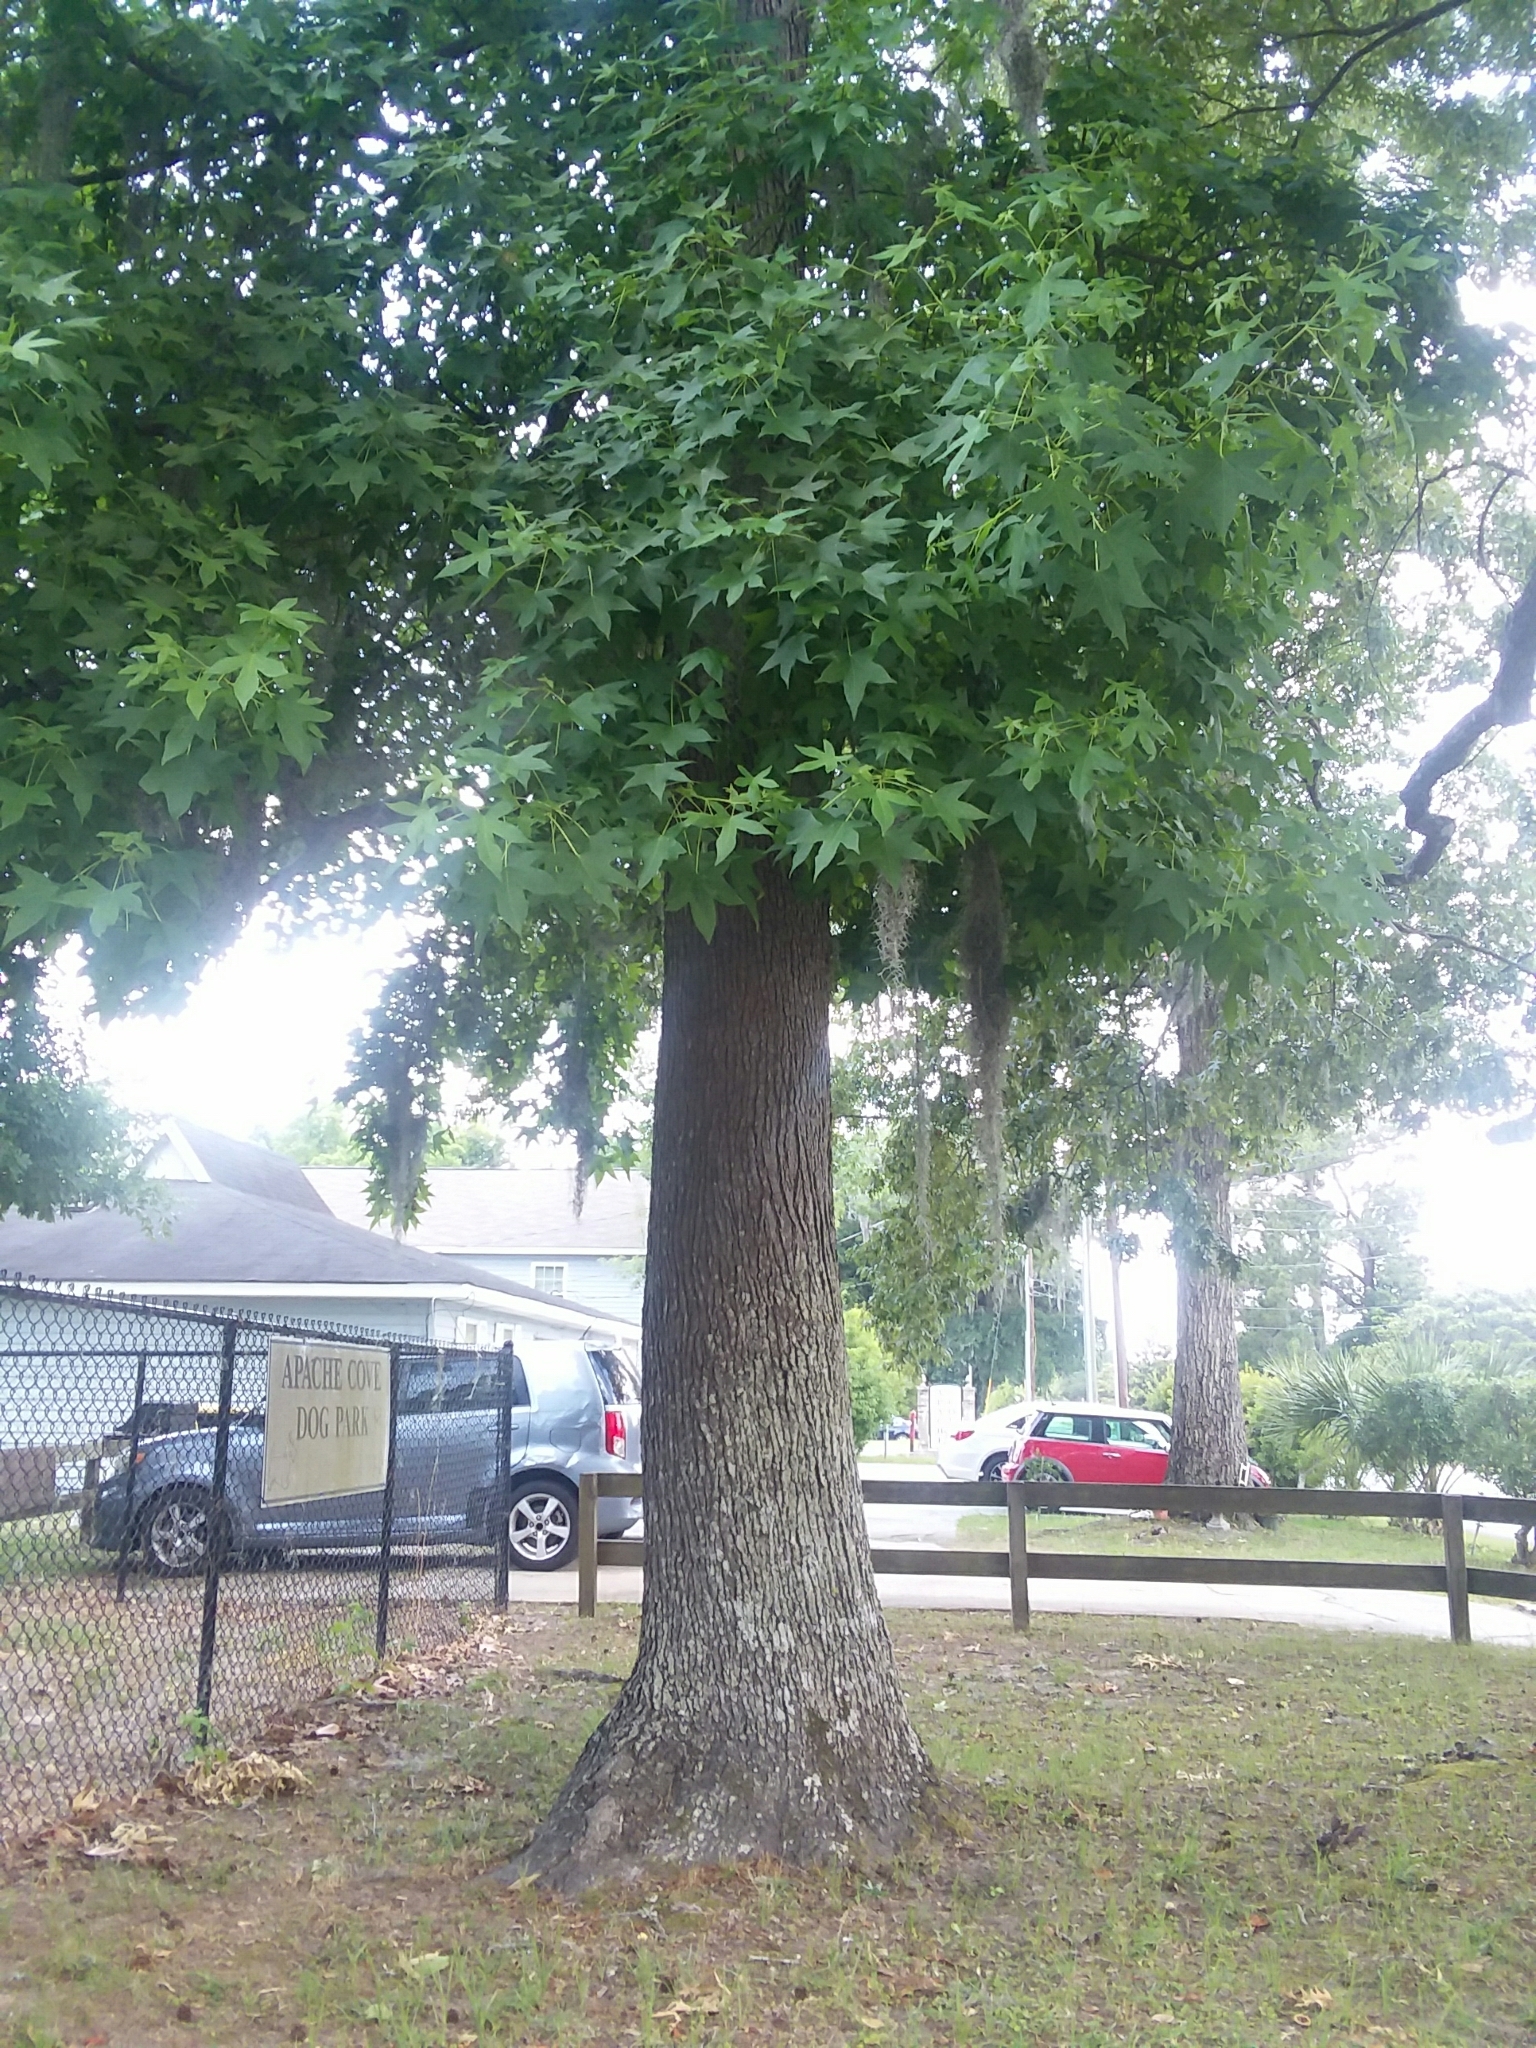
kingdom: Plantae
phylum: Tracheophyta
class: Magnoliopsida
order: Saxifragales
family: Altingiaceae
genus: Liquidambar
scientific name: Liquidambar styraciflua
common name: Sweet gum
